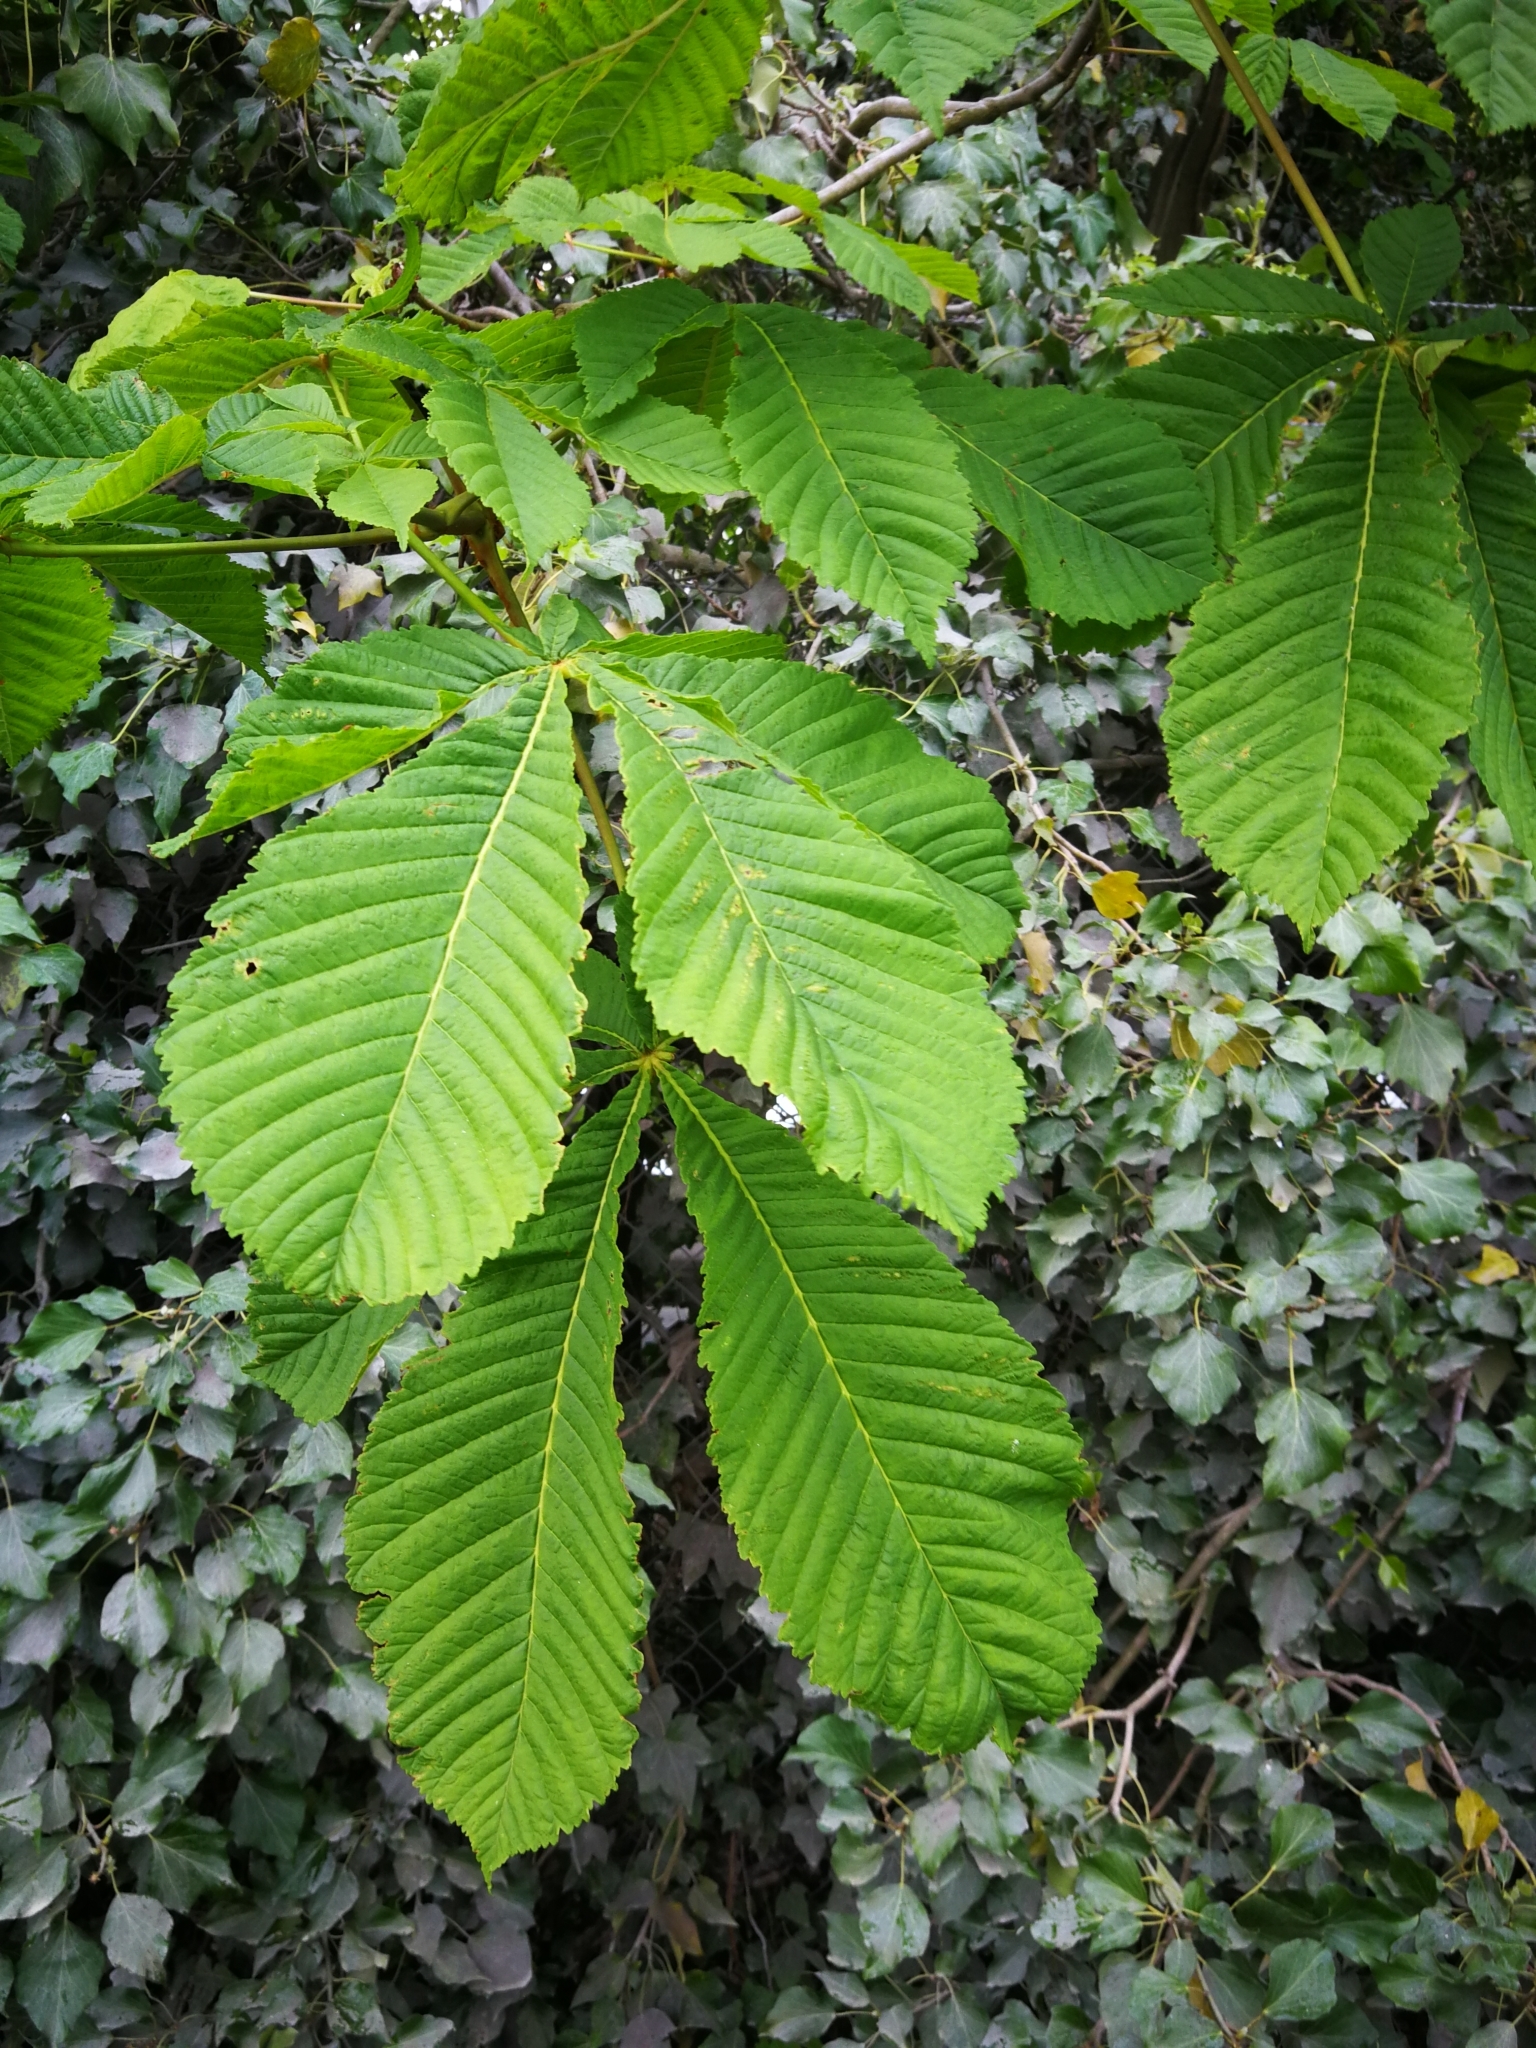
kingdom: Plantae
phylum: Tracheophyta
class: Magnoliopsida
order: Sapindales
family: Sapindaceae
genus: Aesculus
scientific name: Aesculus hippocastanum
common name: Horse-chestnut
